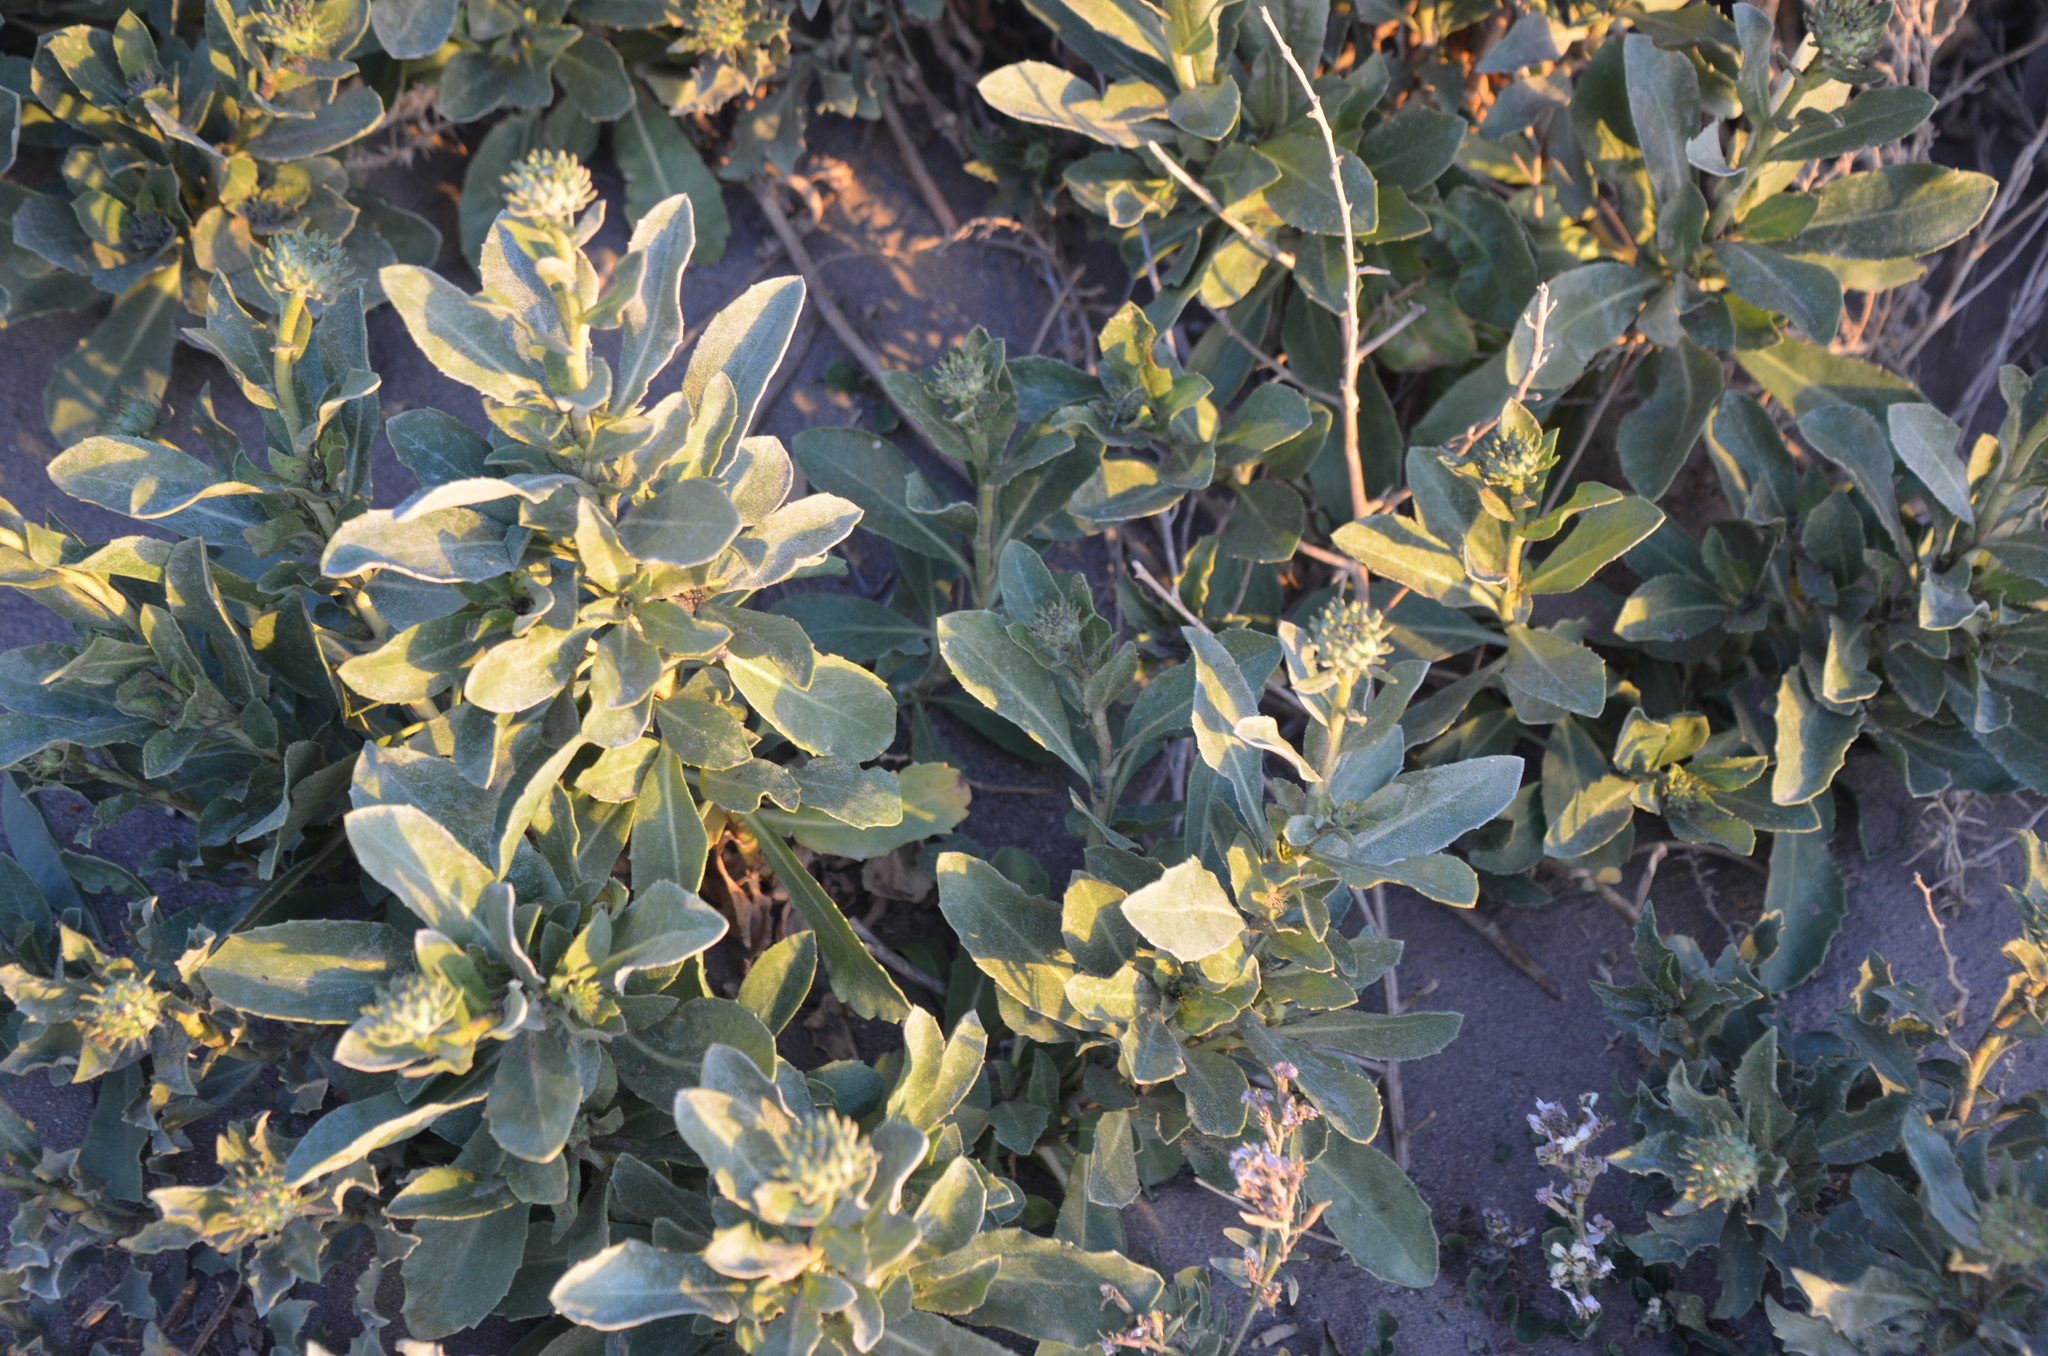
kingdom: Plantae
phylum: Tracheophyta
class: Magnoliopsida
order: Asterales
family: Asteraceae
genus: Grindelia
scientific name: Grindelia aegialitis
